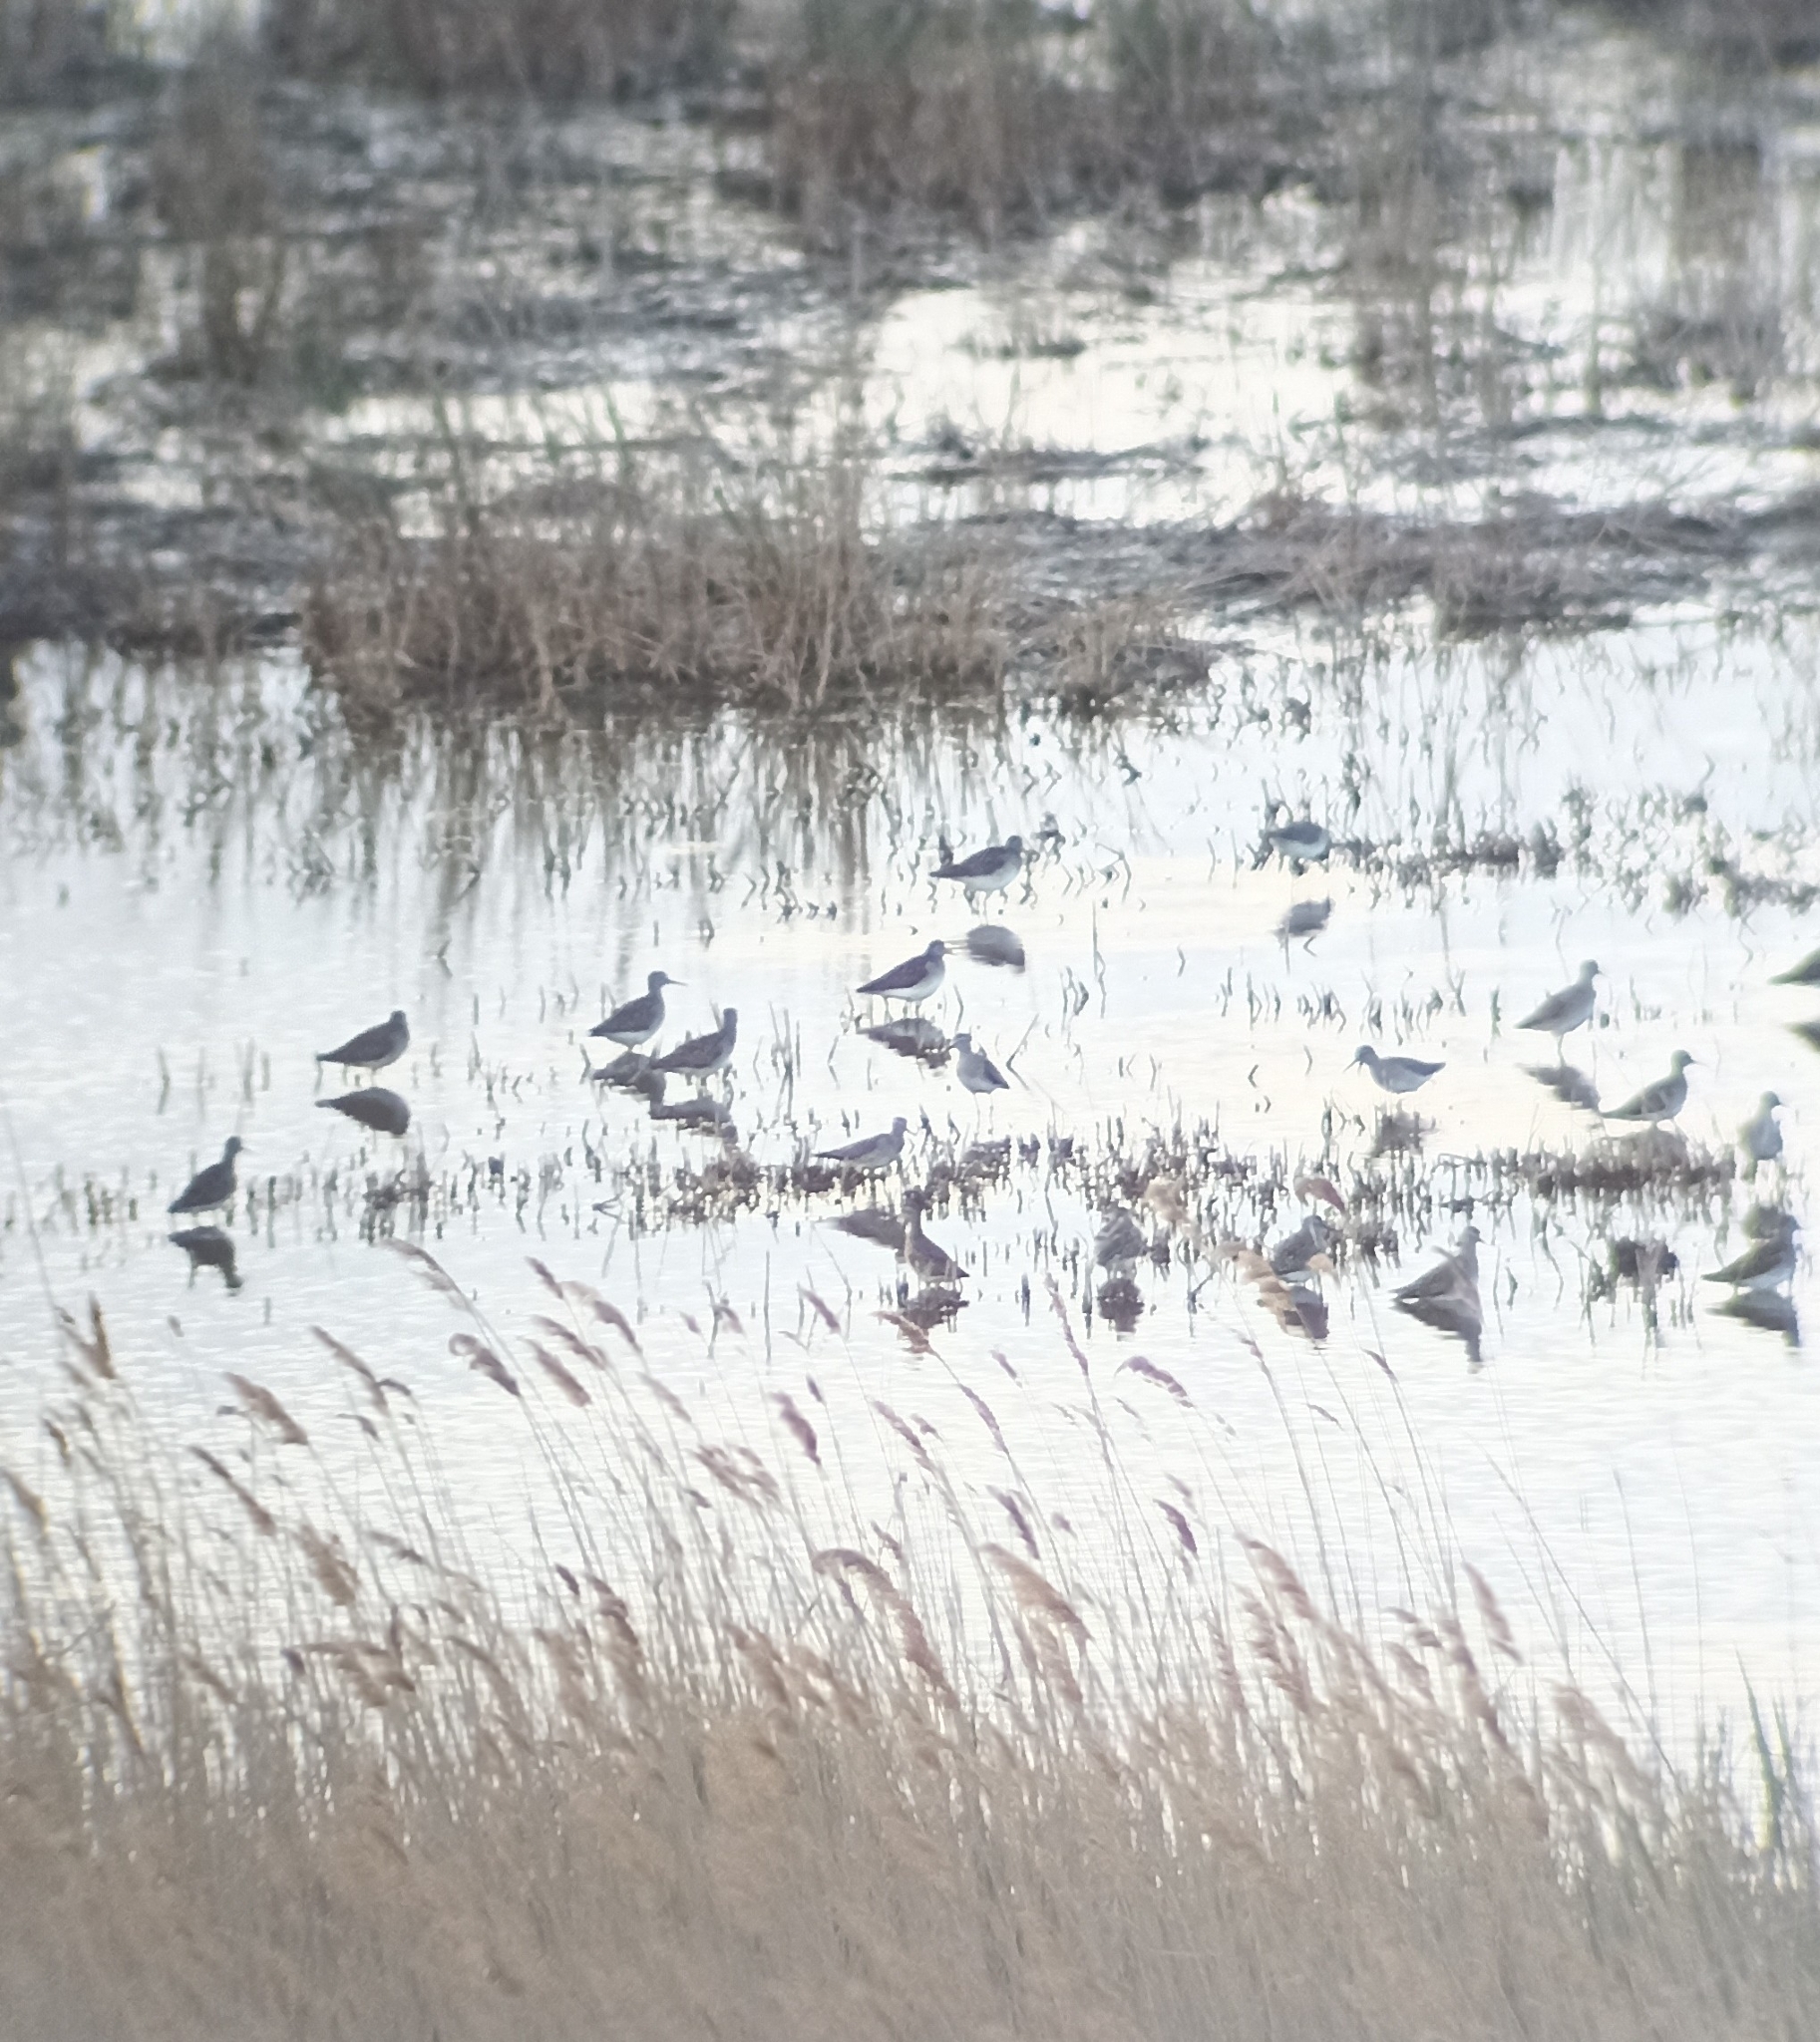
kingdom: Animalia
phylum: Chordata
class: Aves
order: Charadriiformes
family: Scolopacidae
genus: Tringa
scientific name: Tringa glareola
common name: Wood sandpiper
